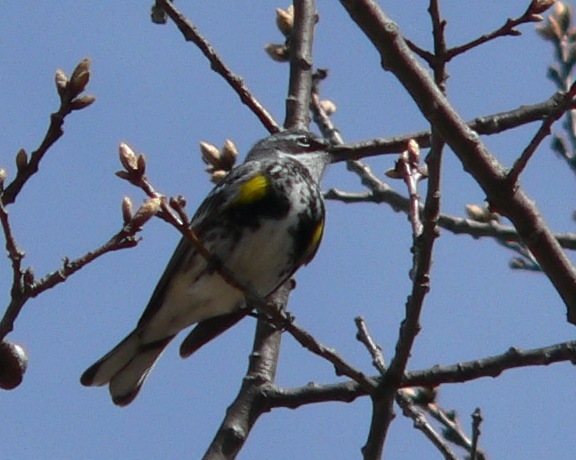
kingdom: Animalia
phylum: Chordata
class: Aves
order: Passeriformes
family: Parulidae
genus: Setophaga
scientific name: Setophaga coronata
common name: Myrtle warbler
